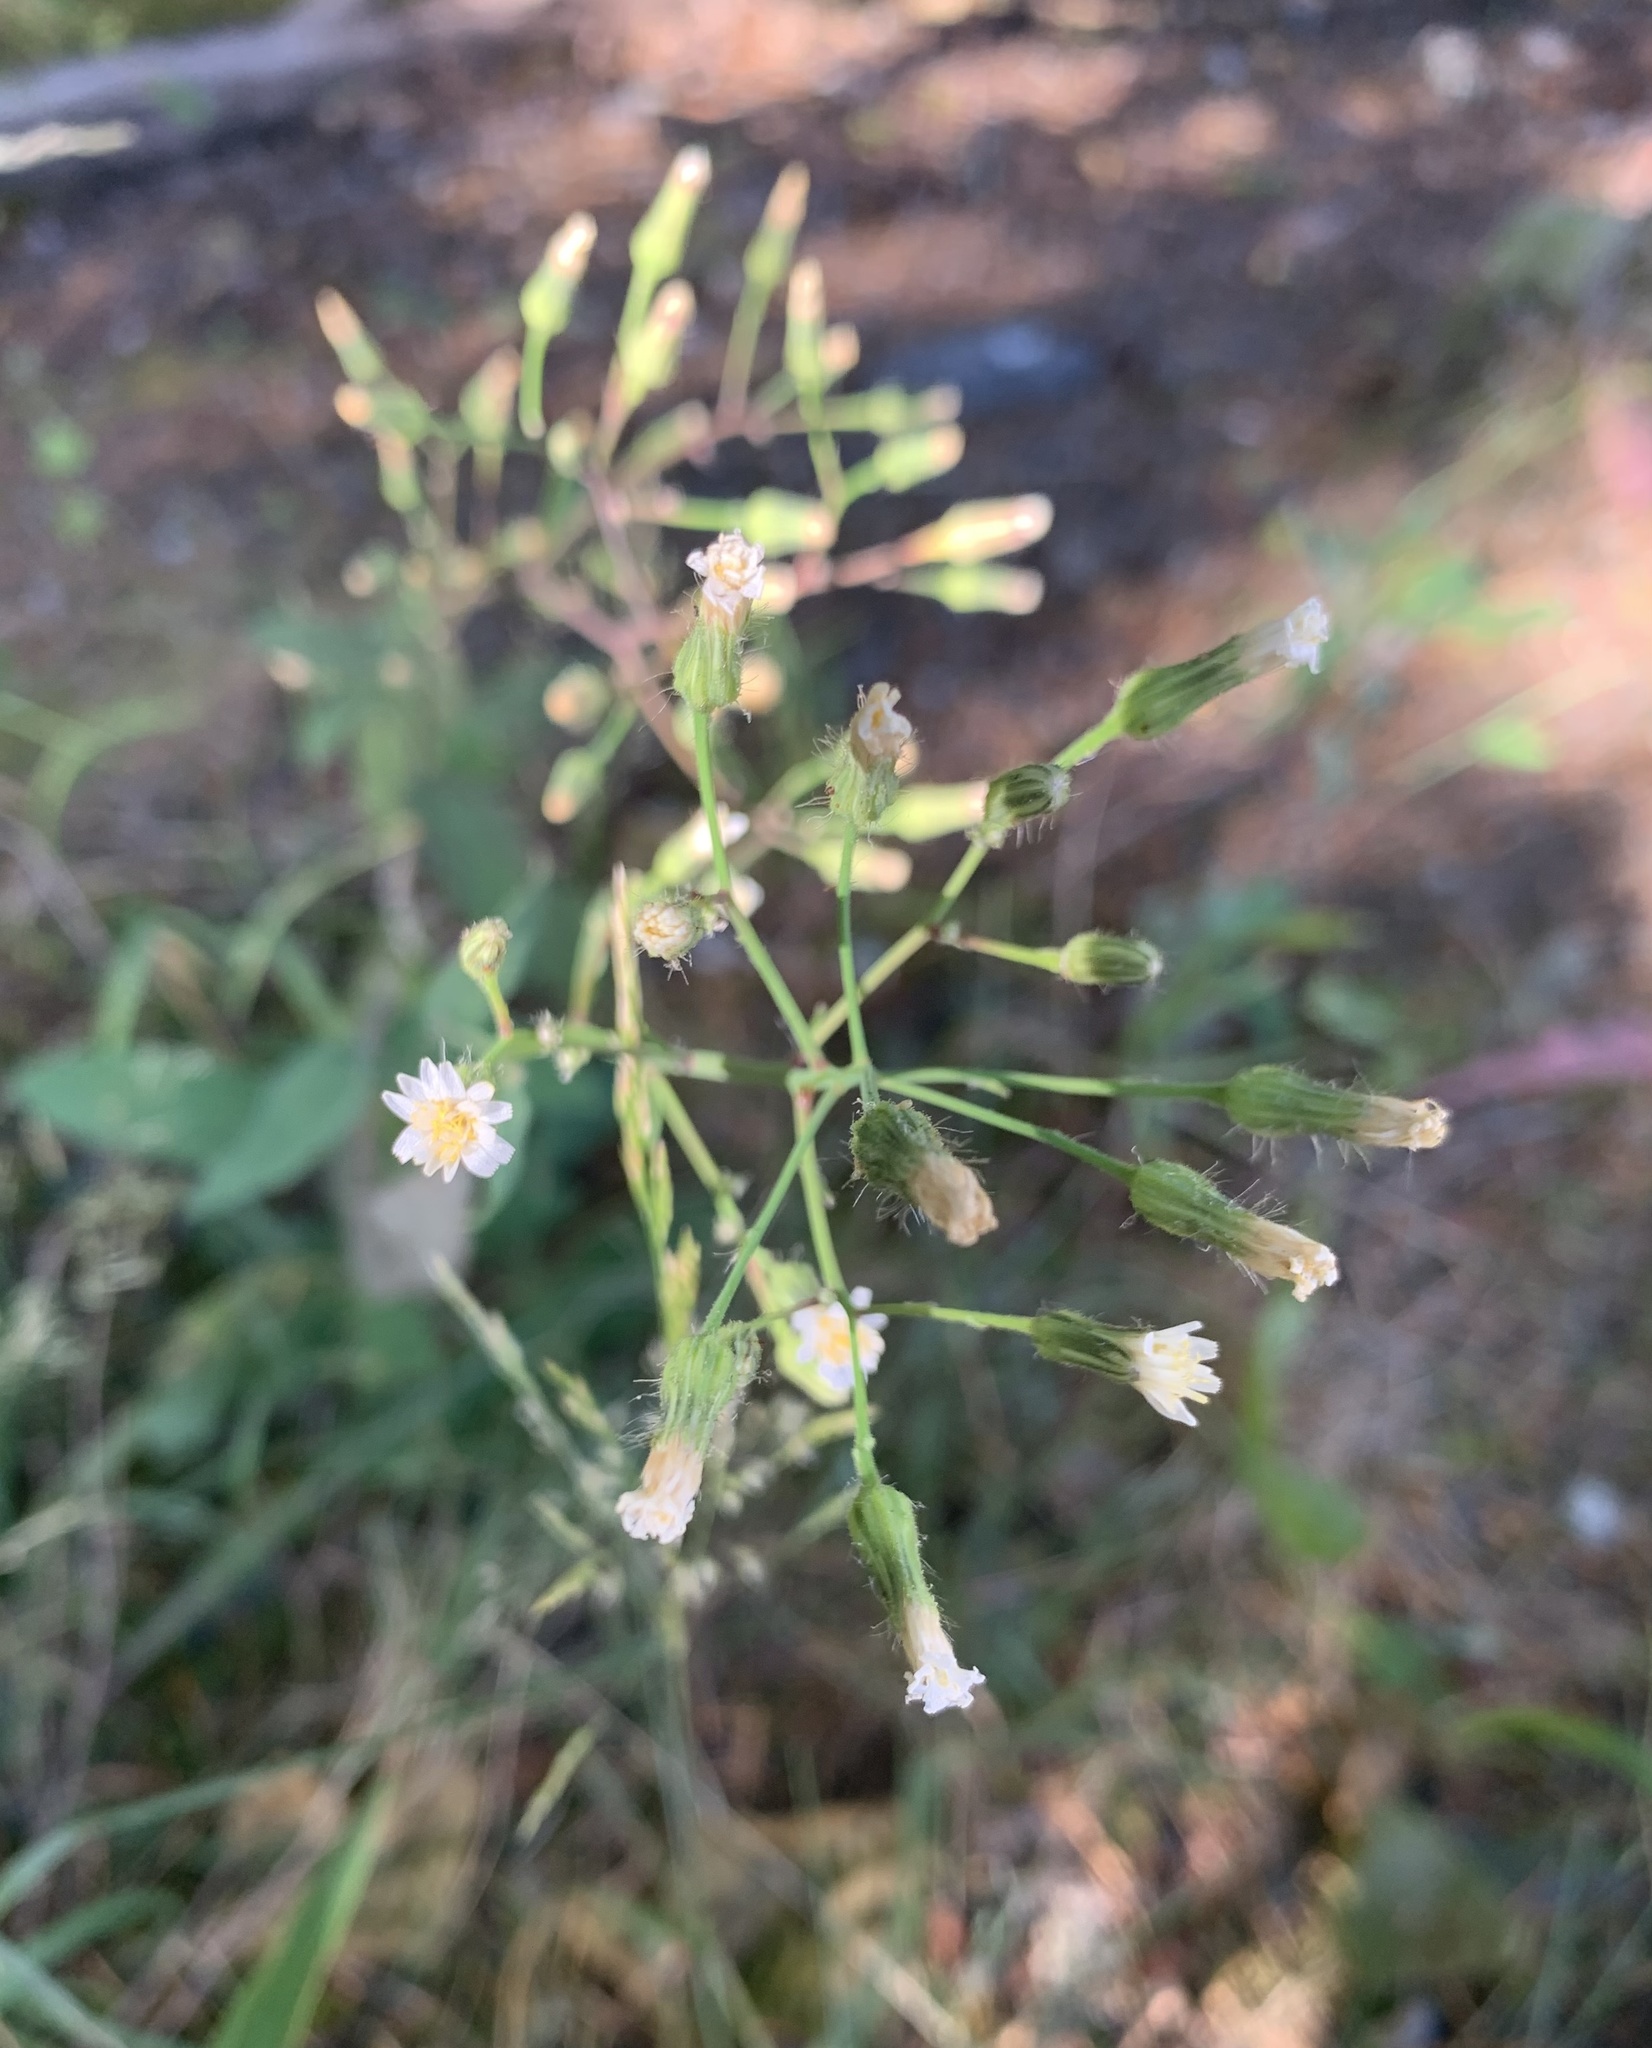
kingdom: Plantae
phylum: Tracheophyta
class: Magnoliopsida
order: Asterales
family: Asteraceae
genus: Hieracium
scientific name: Hieracium albiflorum
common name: White hawkweed
